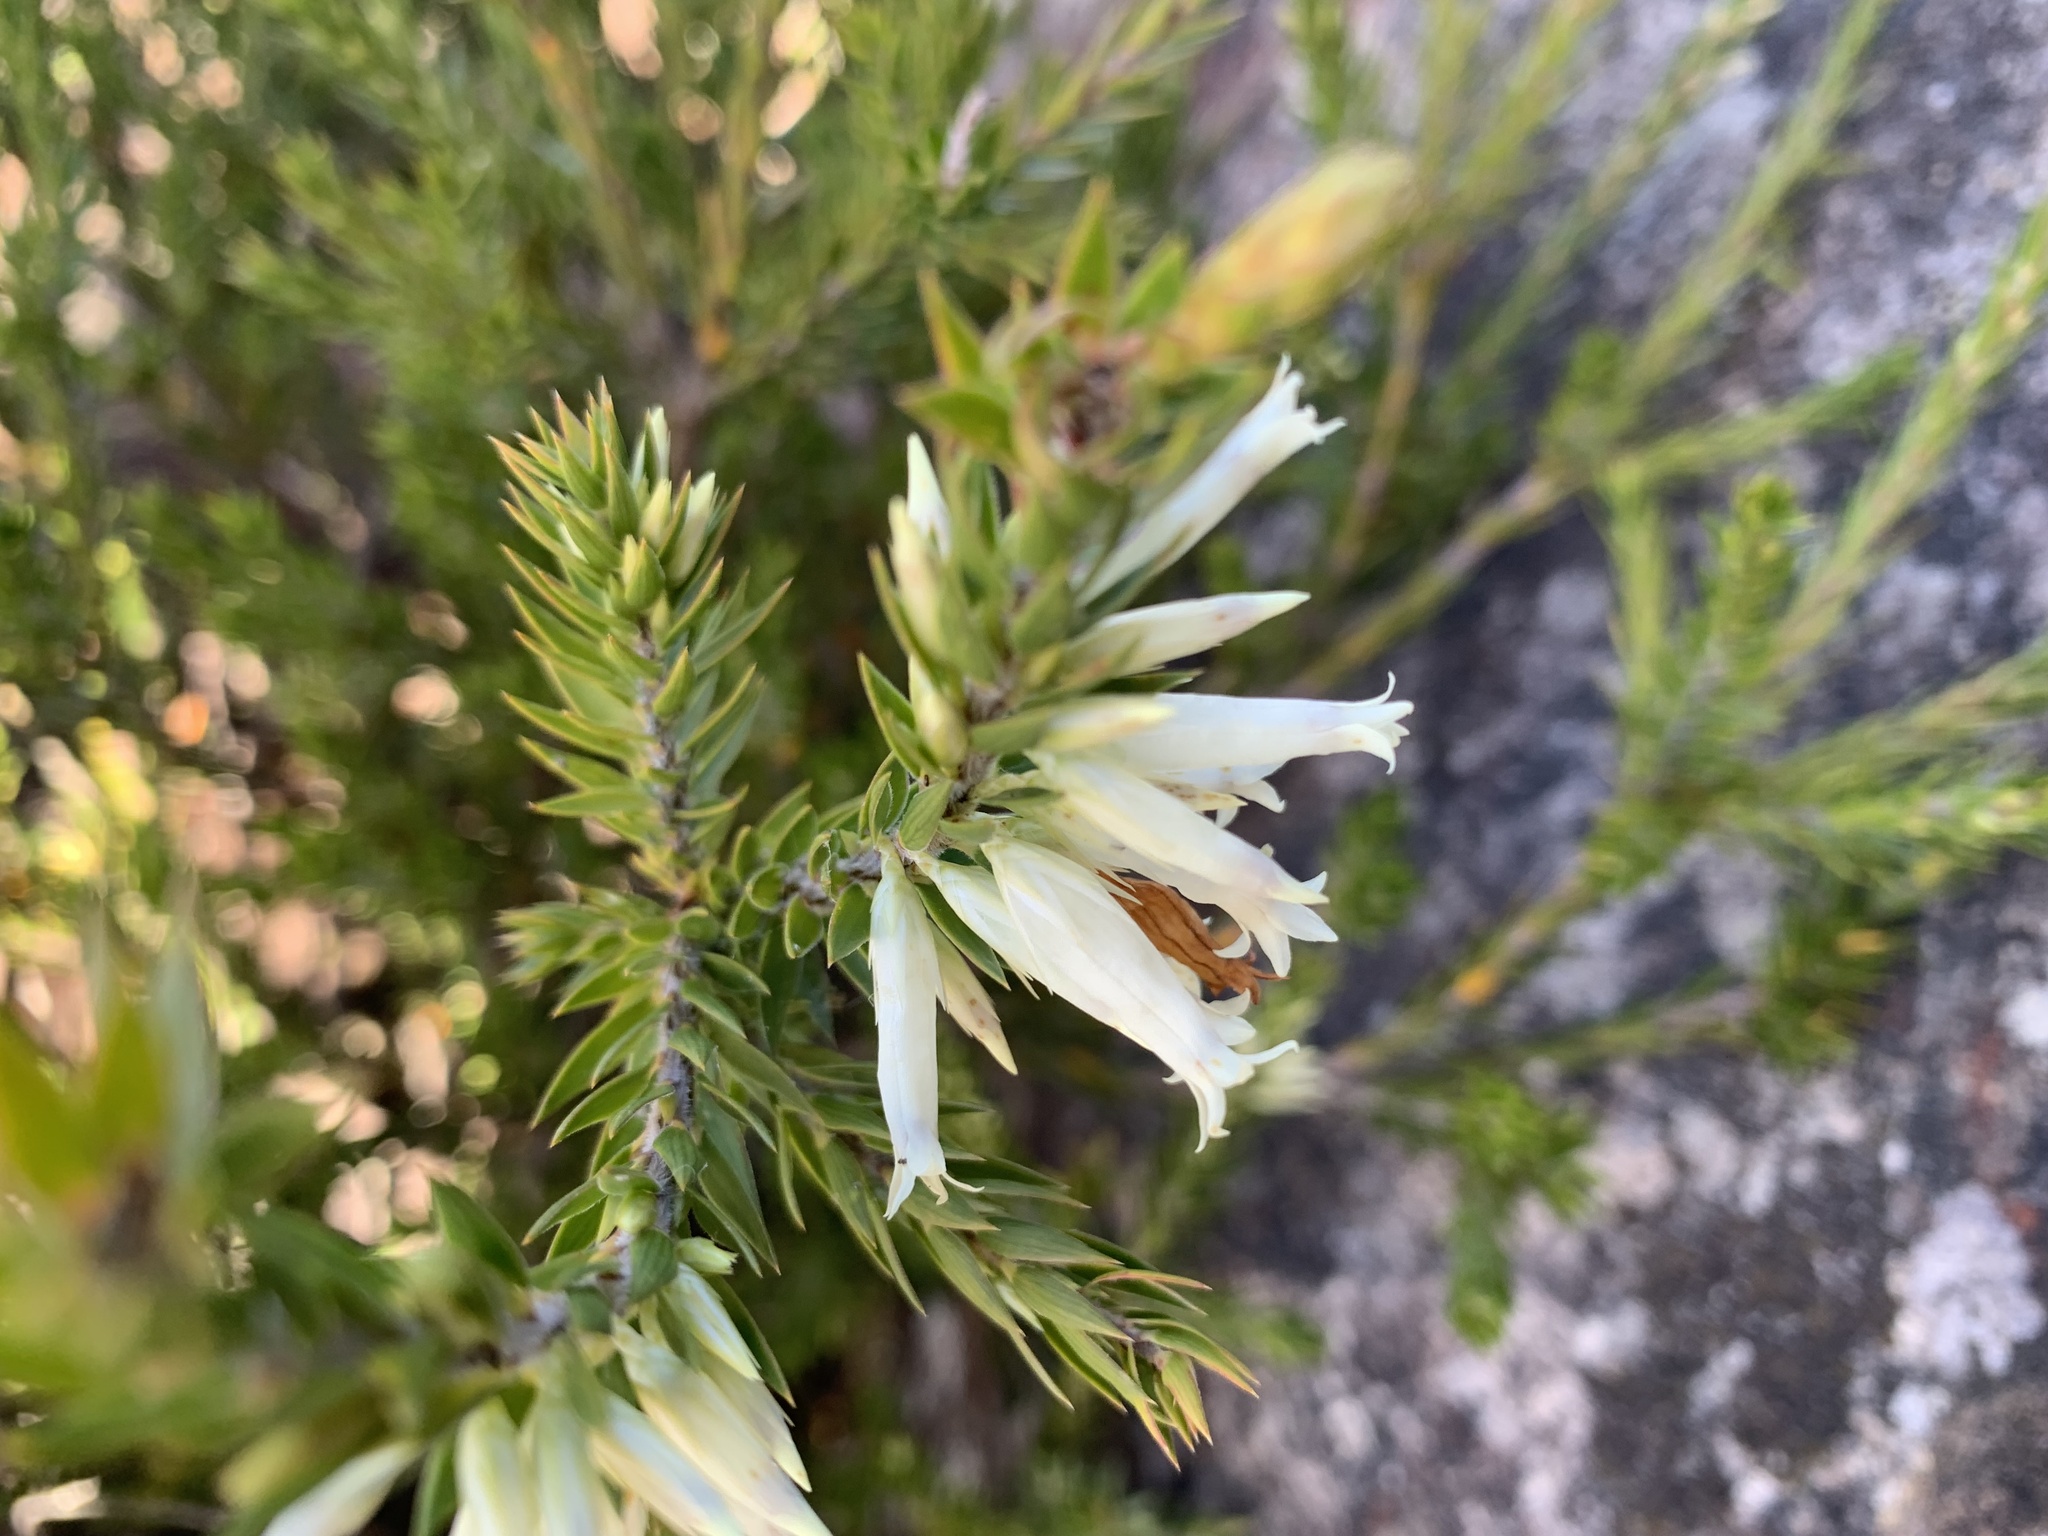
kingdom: Plantae
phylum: Tracheophyta
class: Magnoliopsida
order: Ericales
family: Ericaceae
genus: Epacris
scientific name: Epacris calvertiana
